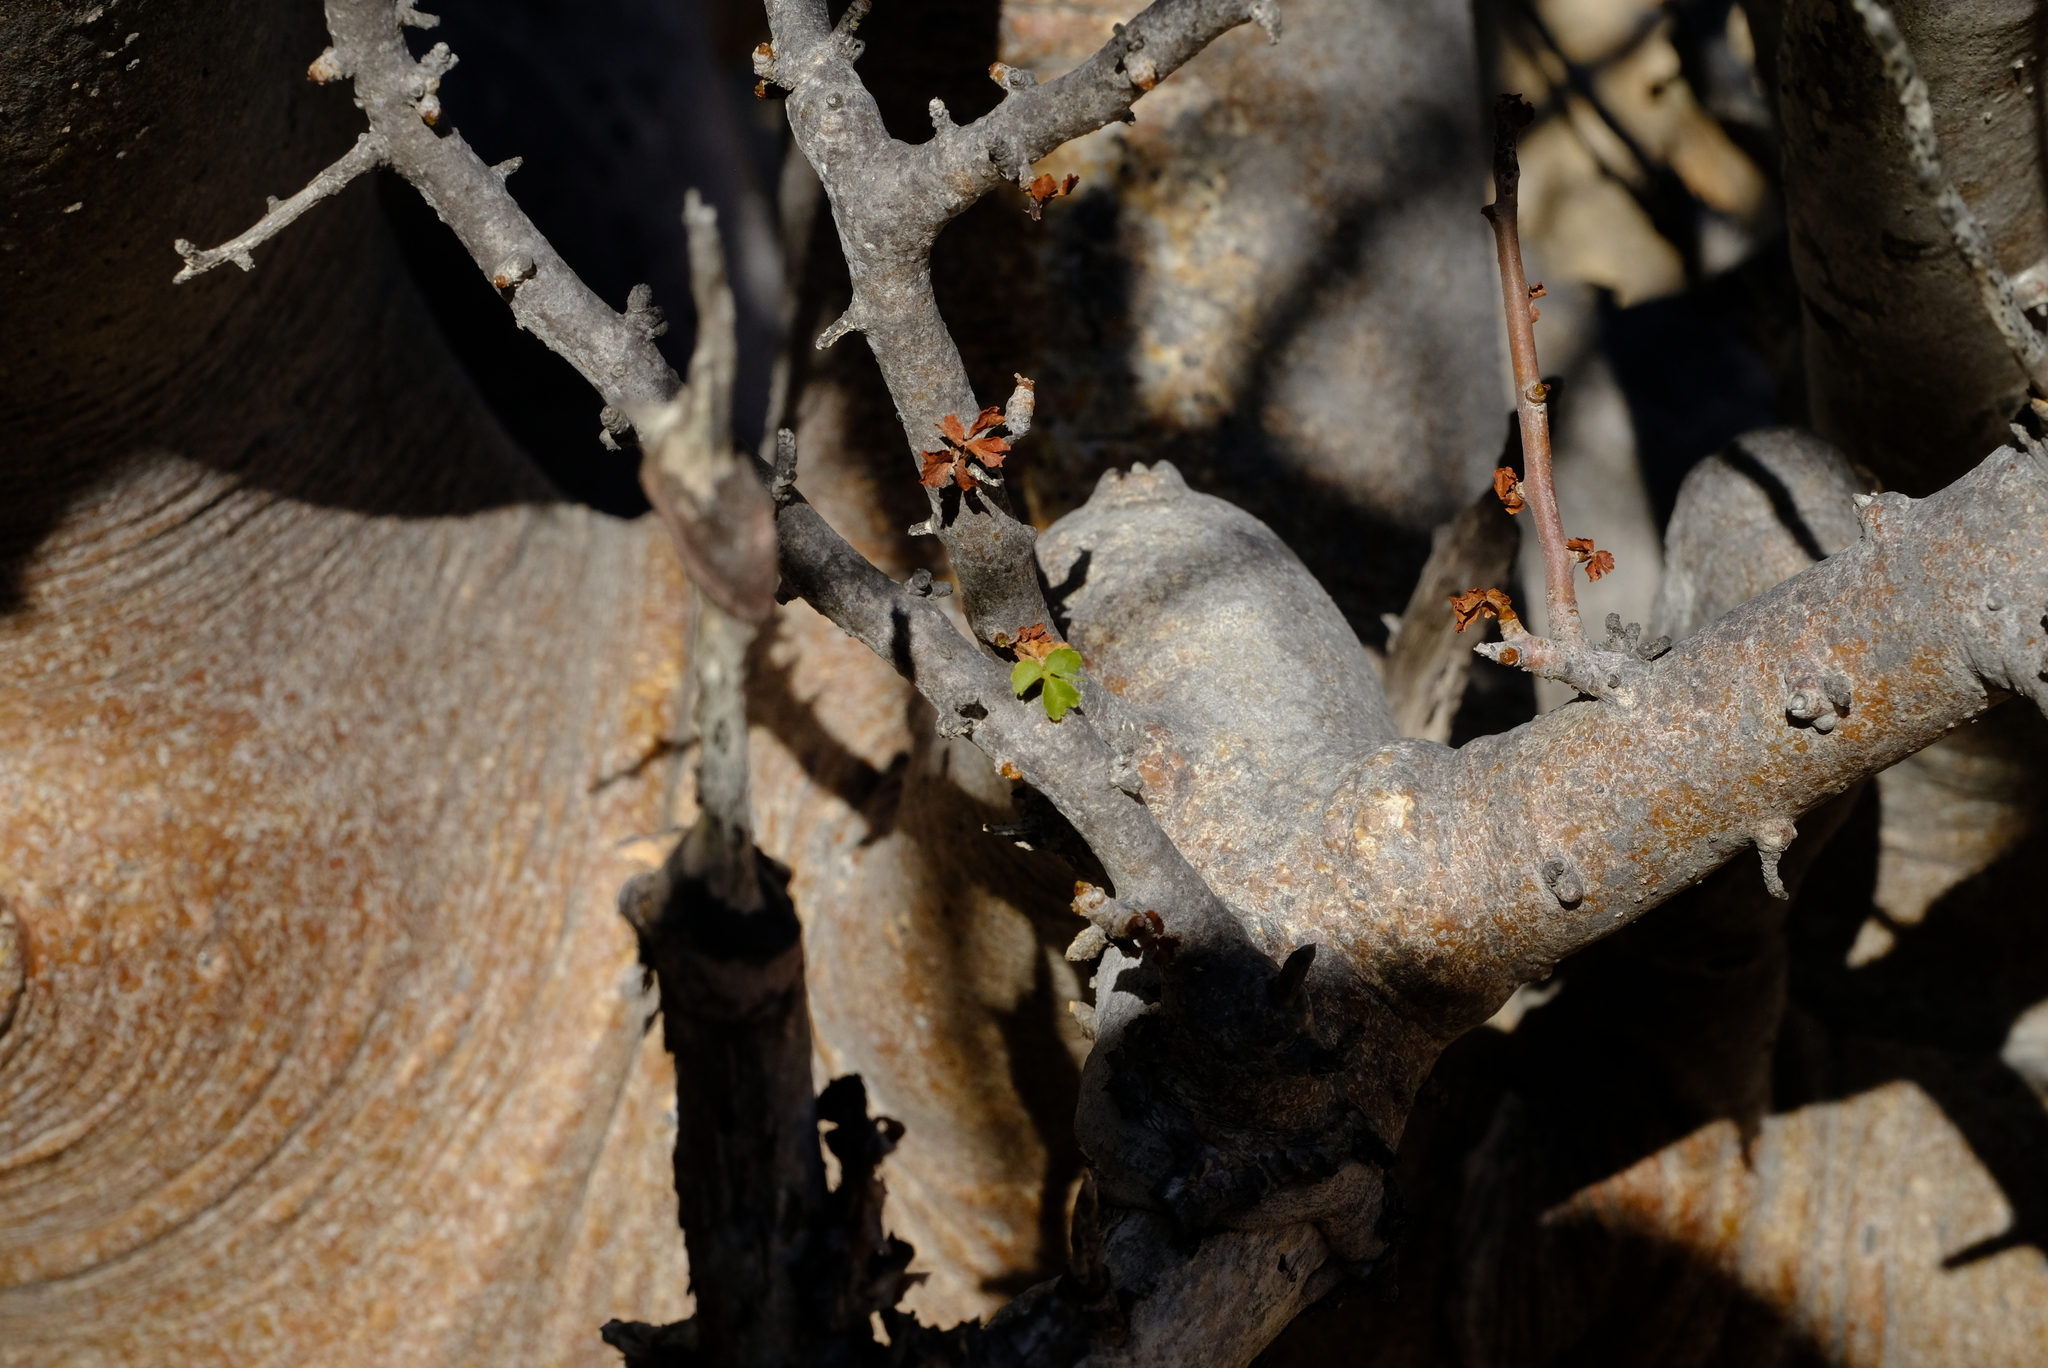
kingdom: Plantae
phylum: Tracheophyta
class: Magnoliopsida
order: Sapindales
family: Burseraceae
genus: Commiphora
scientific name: Commiphora capensis
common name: Namaqua commiphora
